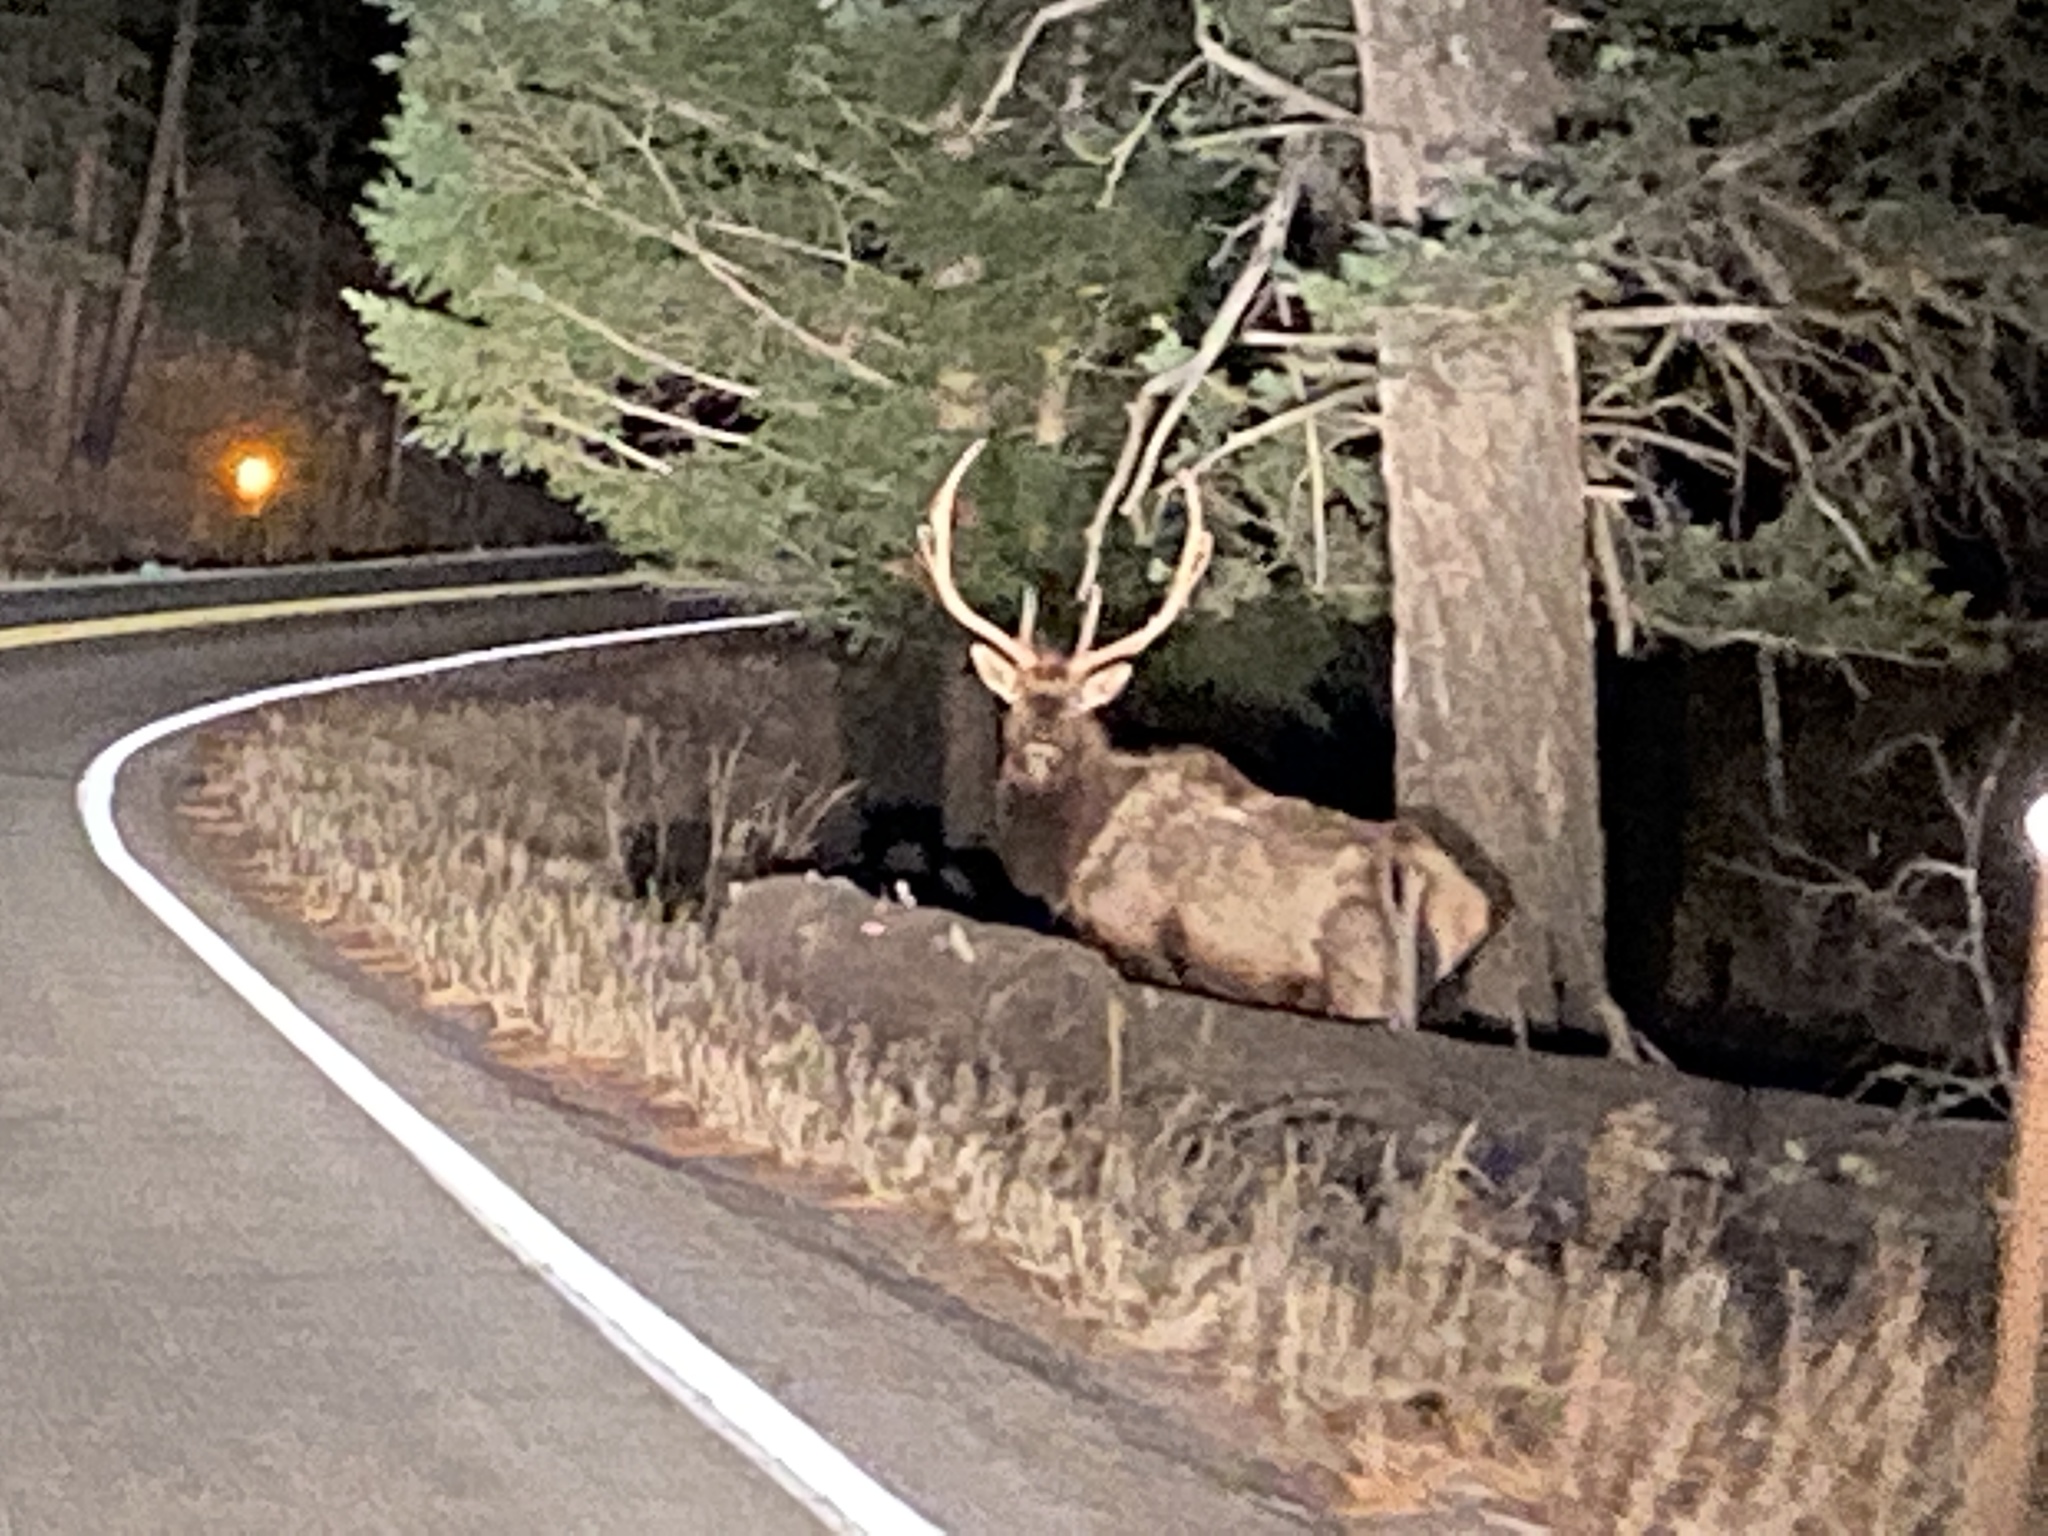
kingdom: Animalia
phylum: Chordata
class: Mammalia
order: Artiodactyla
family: Cervidae
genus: Cervus
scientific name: Cervus elaphus
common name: Red deer
